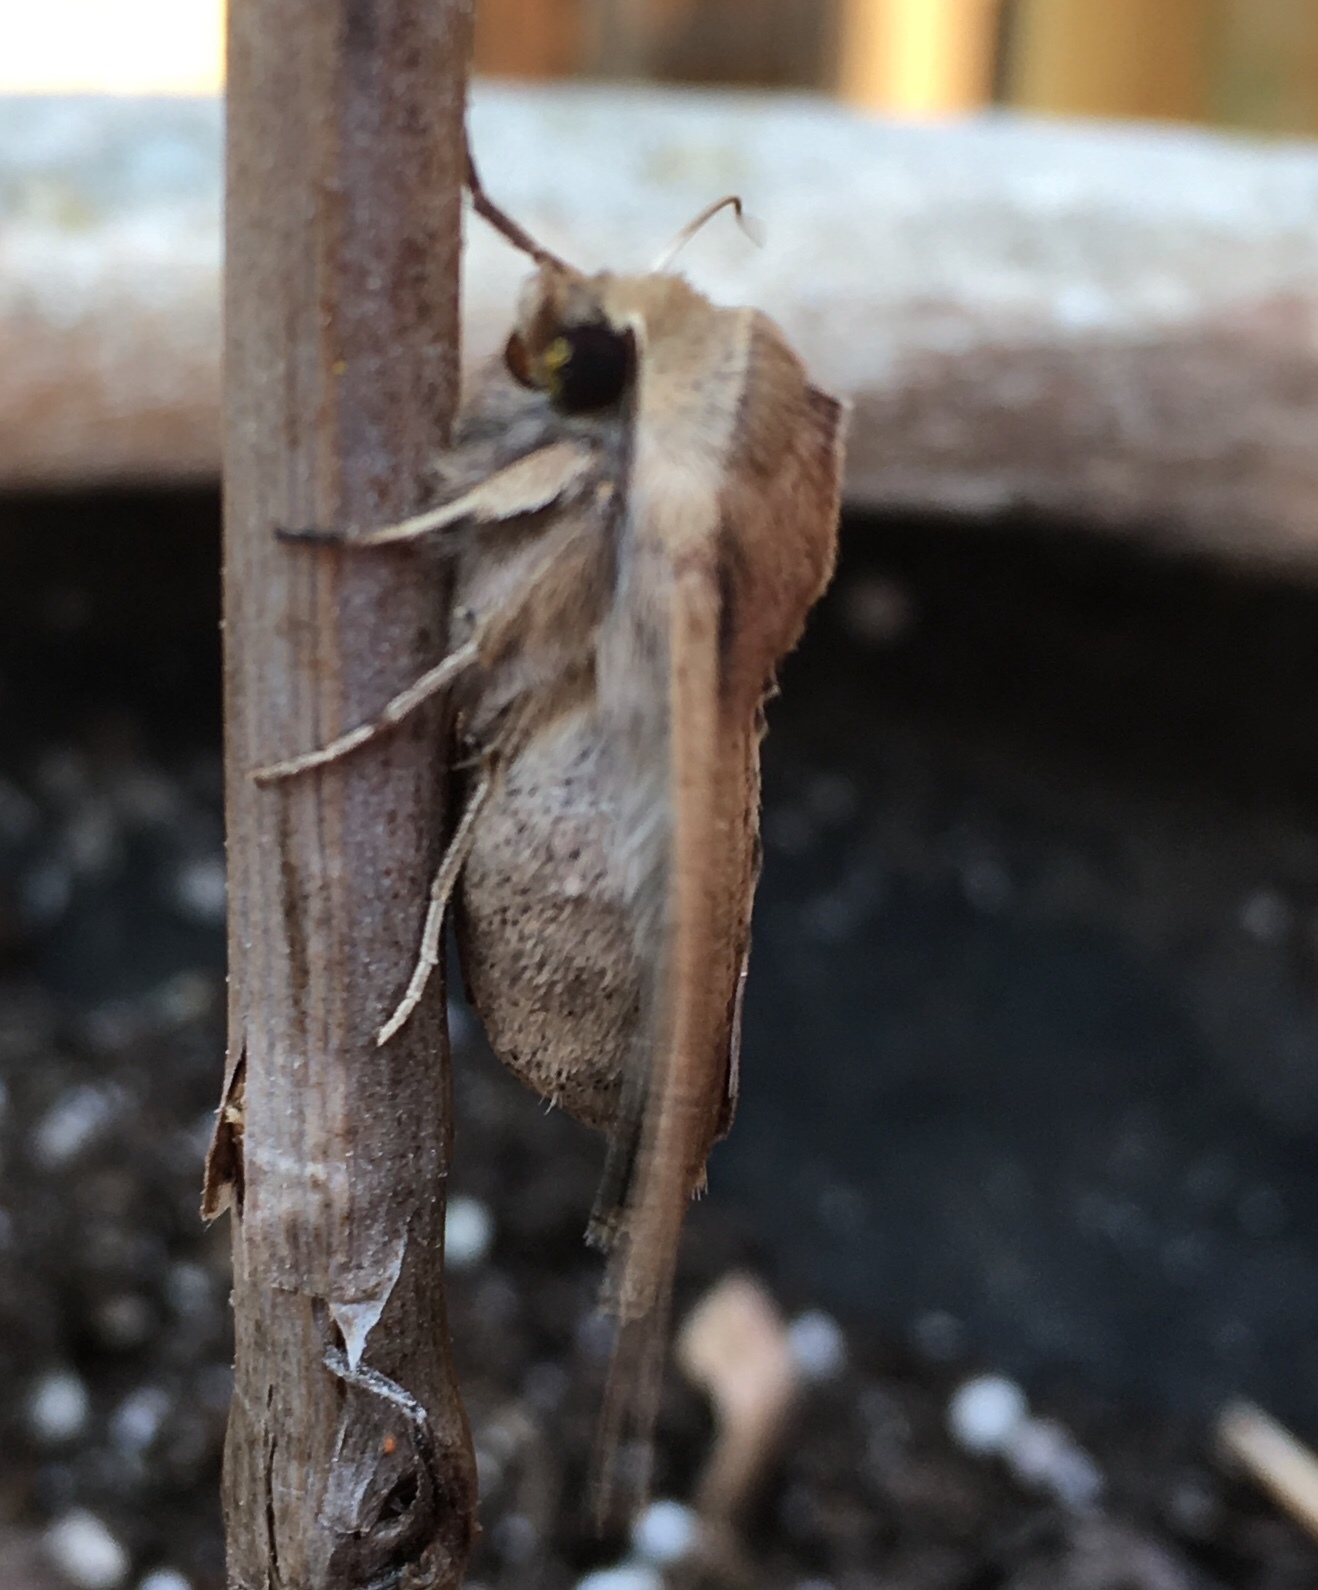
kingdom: Animalia
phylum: Arthropoda
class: Insecta
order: Lepidoptera
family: Noctuidae
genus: Mythimna
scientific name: Mythimna unipuncta
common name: White-speck
